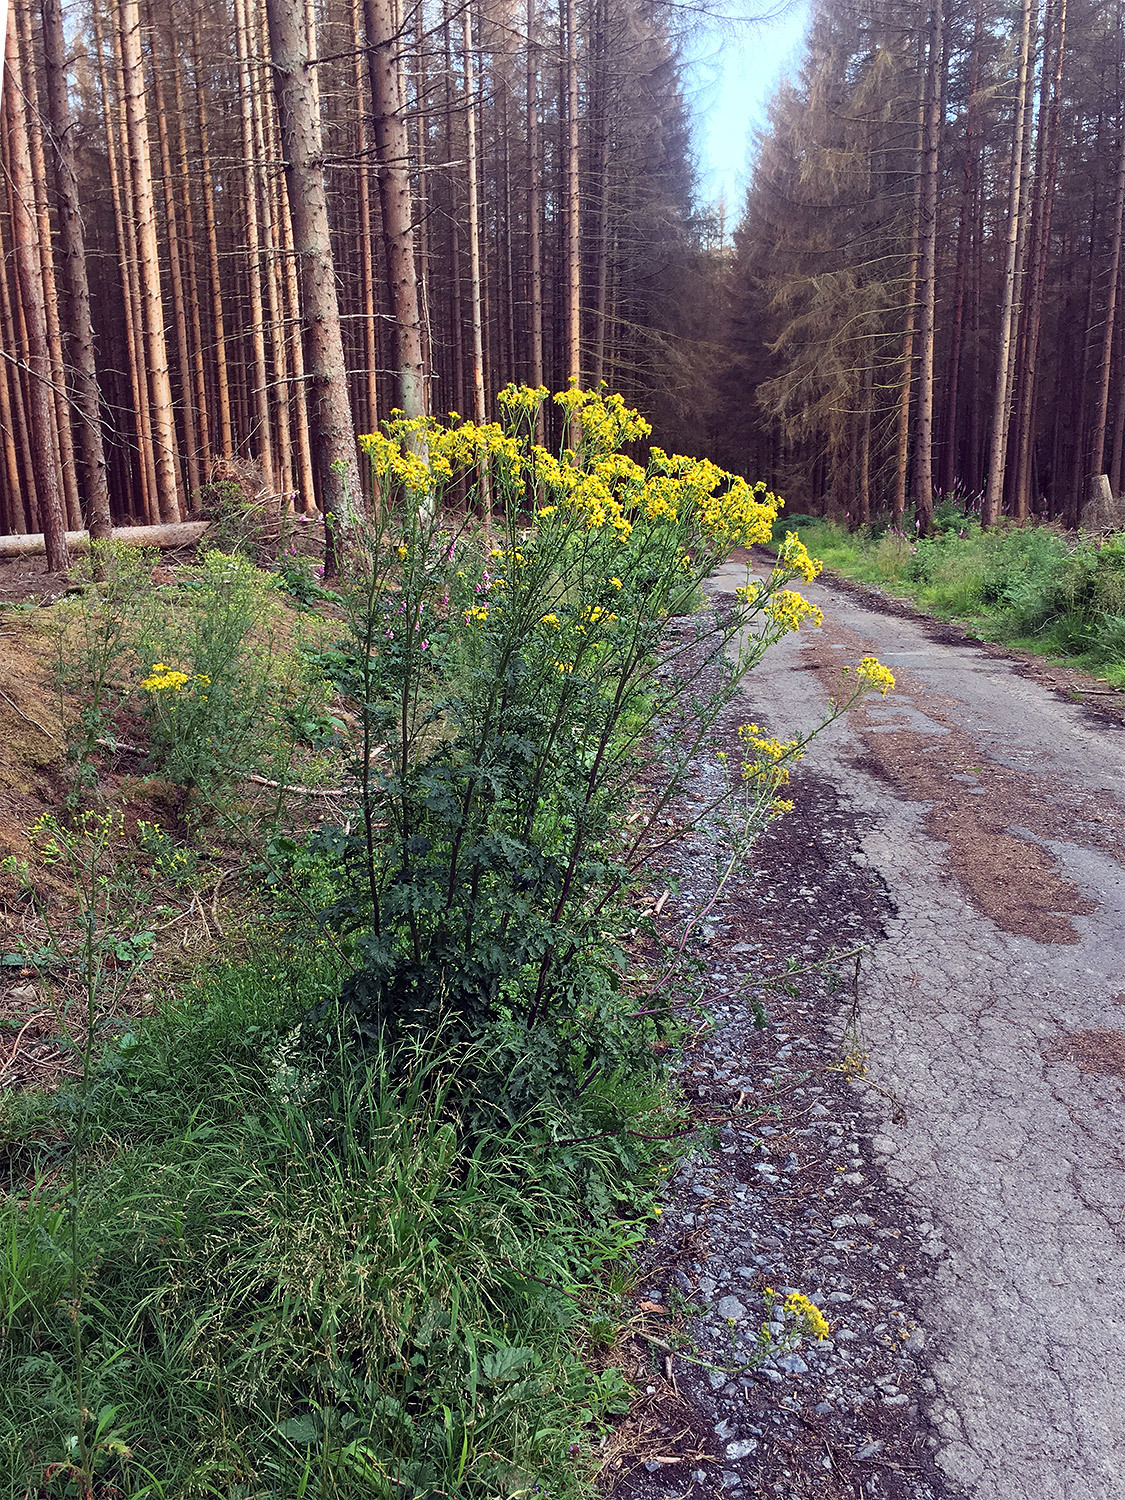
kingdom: Plantae
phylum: Tracheophyta
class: Magnoliopsida
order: Asterales
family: Asteraceae
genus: Jacobaea
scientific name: Jacobaea vulgaris
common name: Stinking willie
